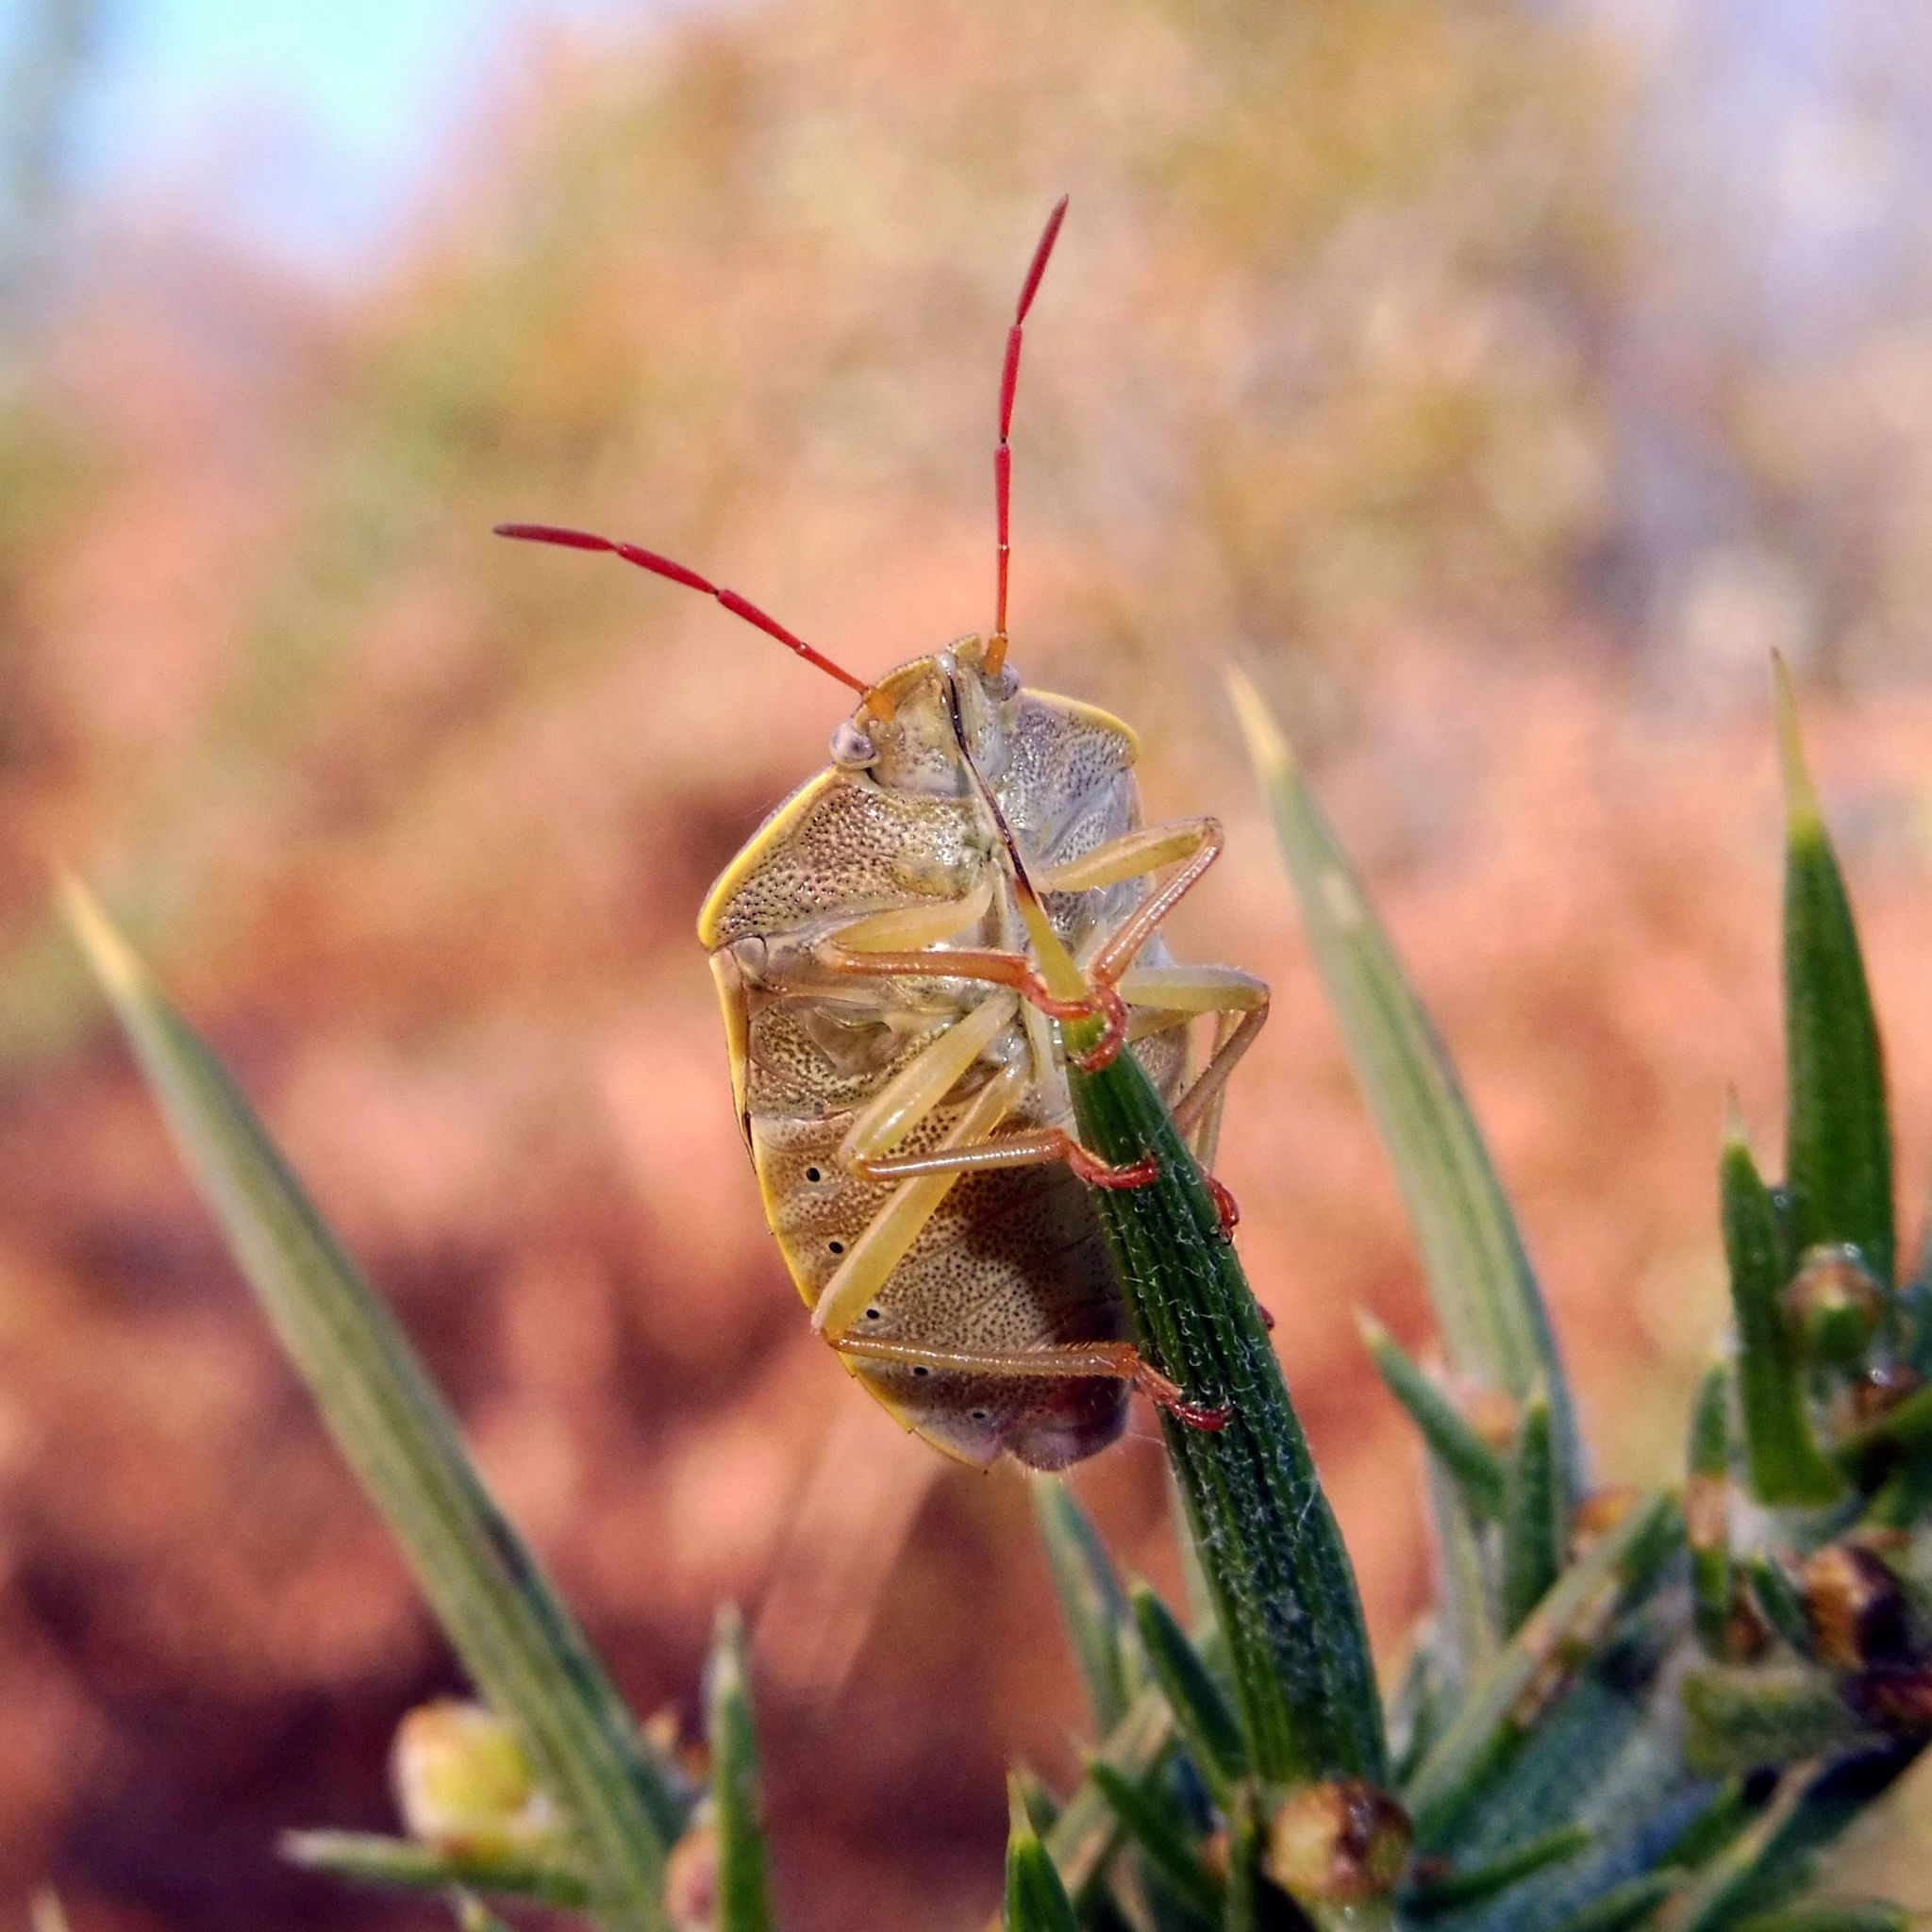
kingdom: Animalia
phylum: Arthropoda
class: Insecta
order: Hemiptera
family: Pentatomidae
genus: Piezodorus
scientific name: Piezodorus lituratus
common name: Stink bug
